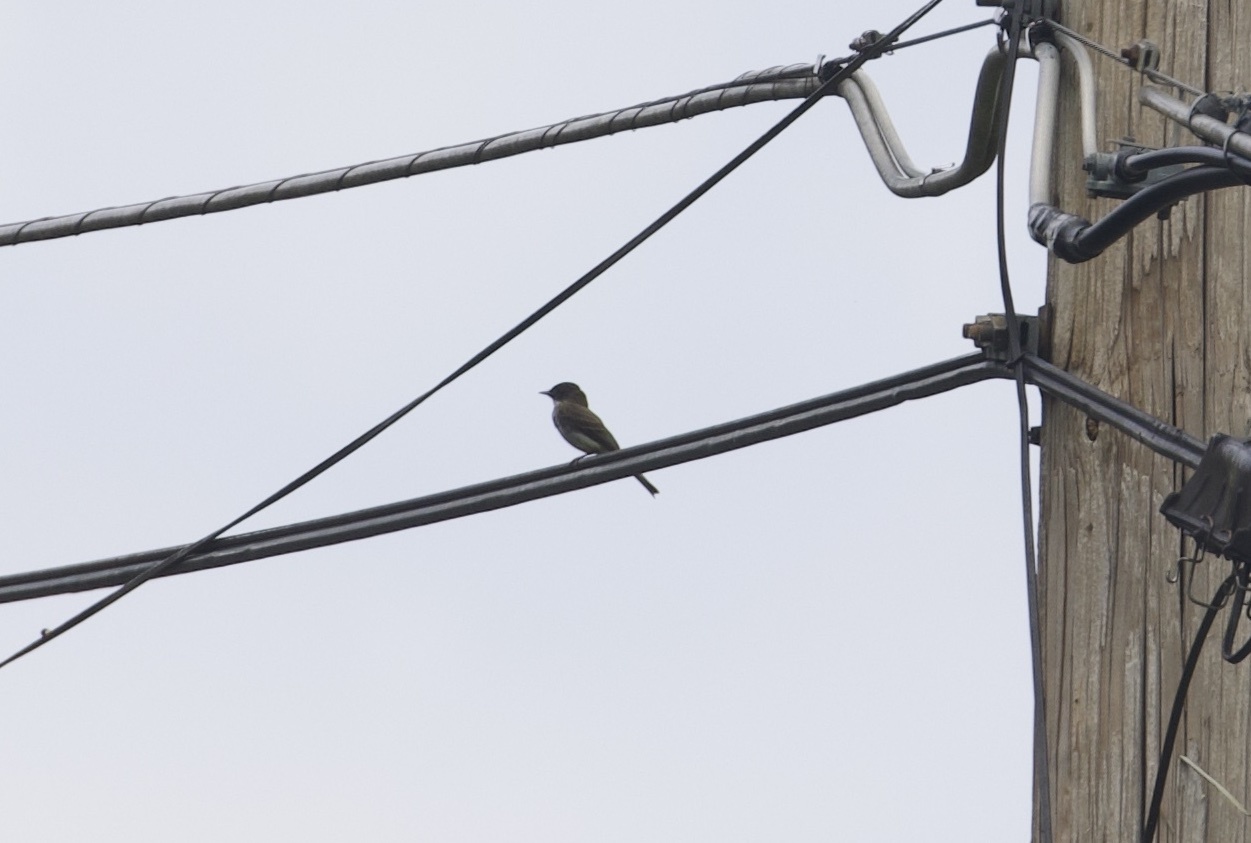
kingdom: Animalia
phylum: Chordata
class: Aves
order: Passeriformes
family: Tyrannidae
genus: Sayornis
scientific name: Sayornis phoebe
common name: Eastern phoebe
